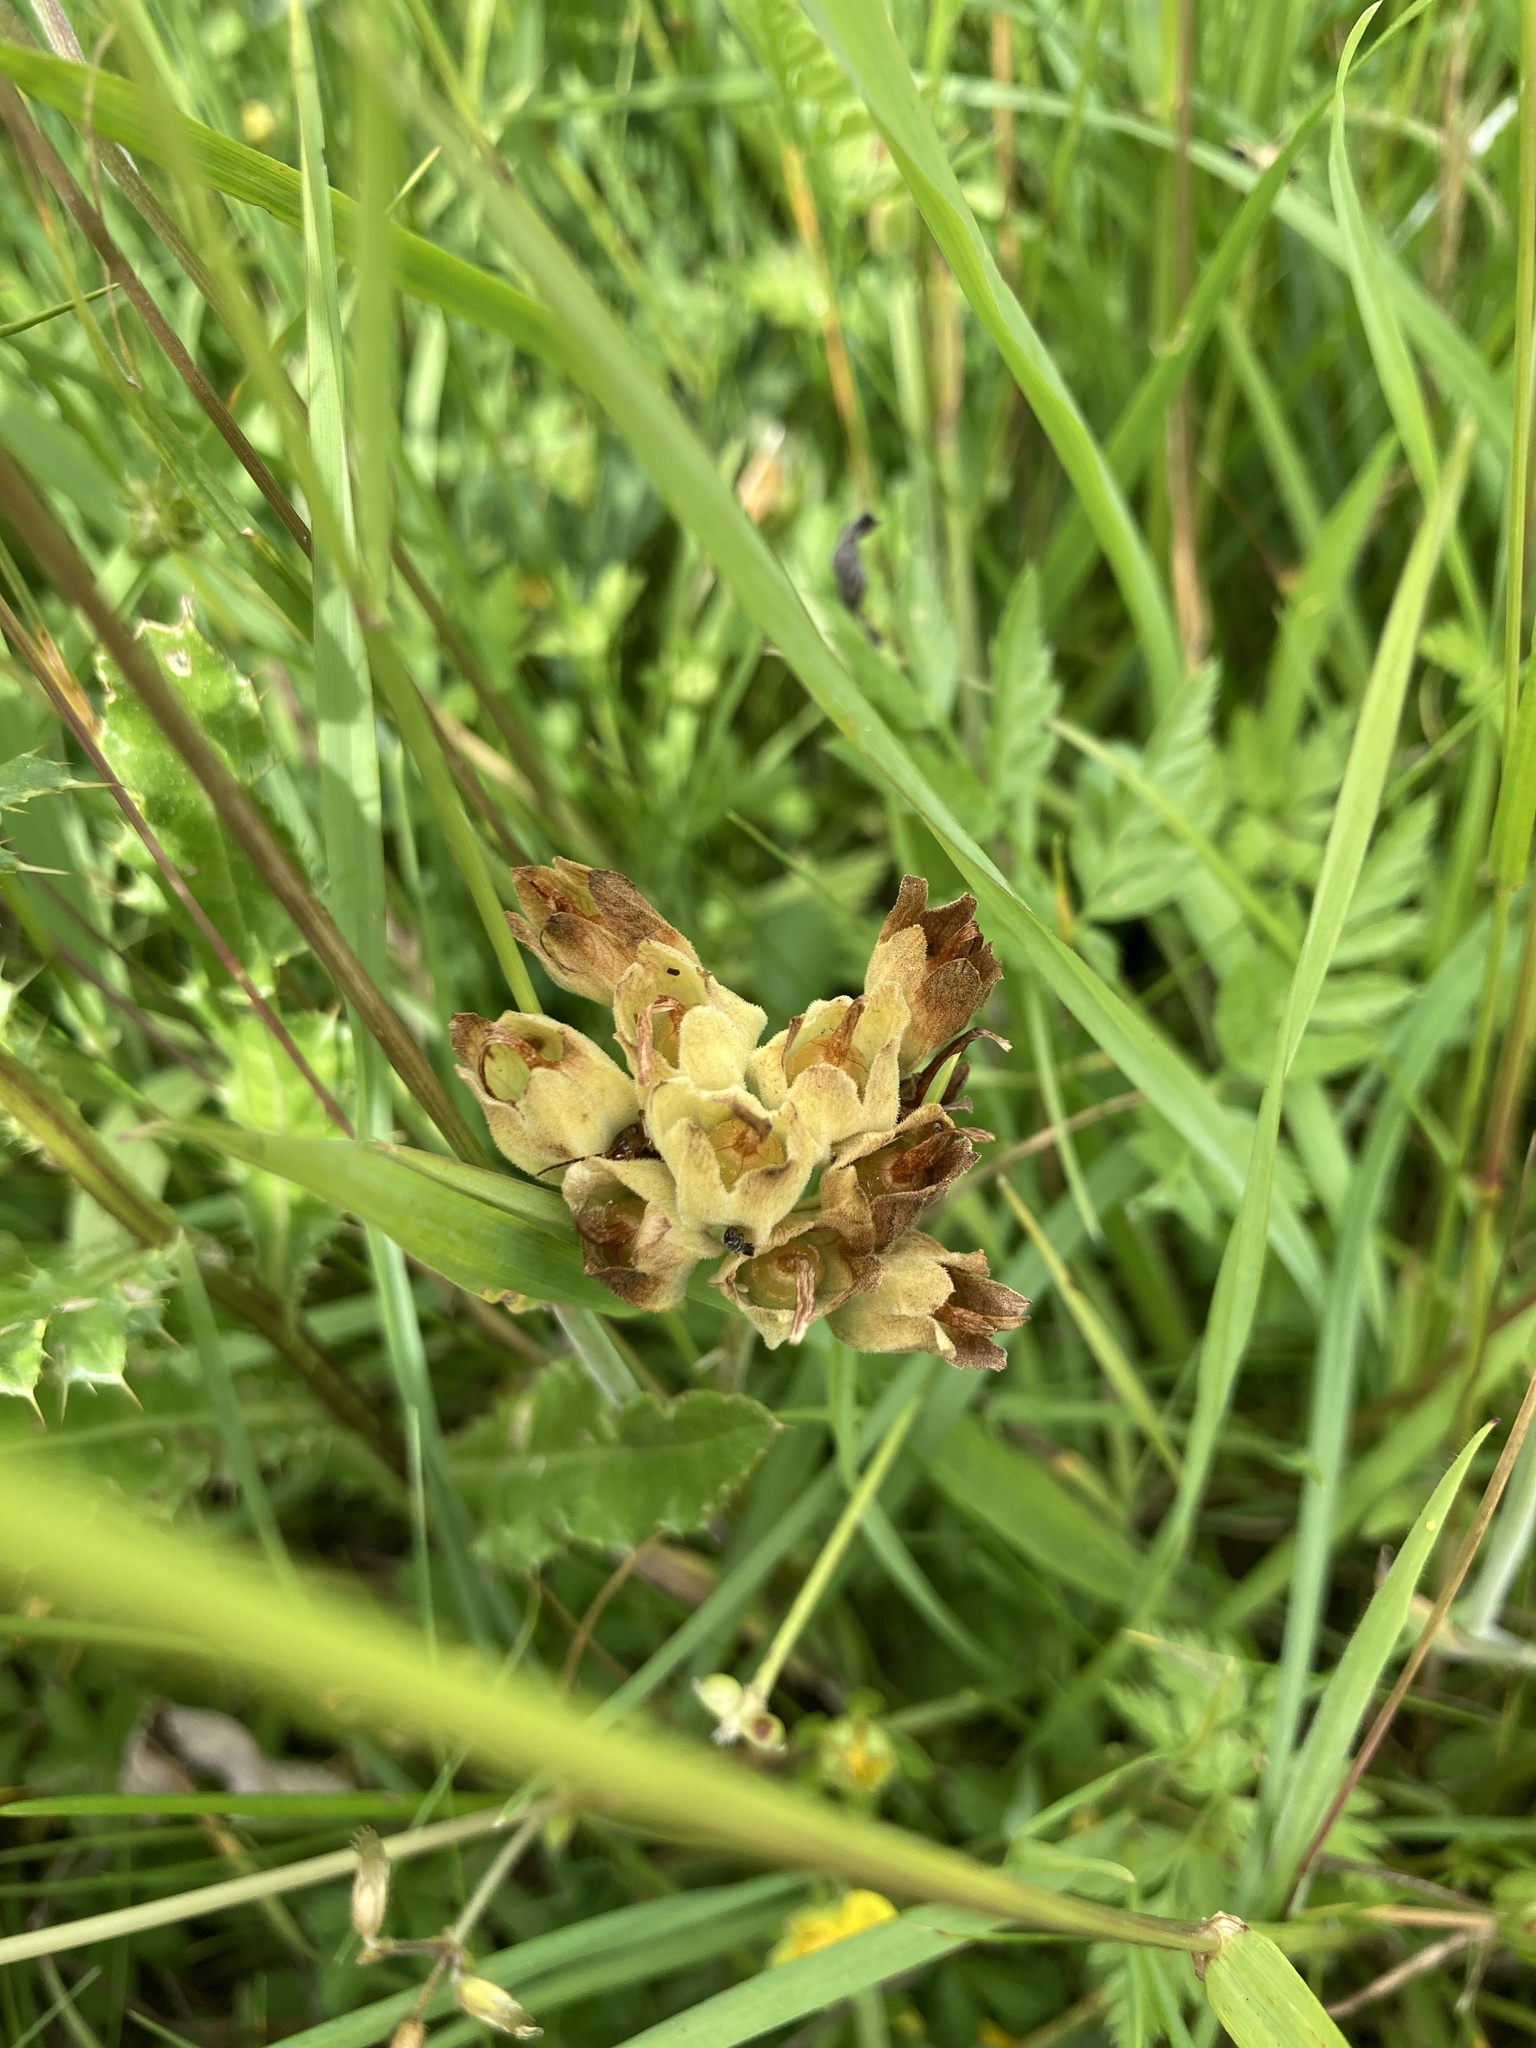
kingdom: Plantae
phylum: Tracheophyta
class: Magnoliopsida
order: Ericales
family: Primulaceae
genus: Primula
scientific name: Primula veris
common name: Cowslip
